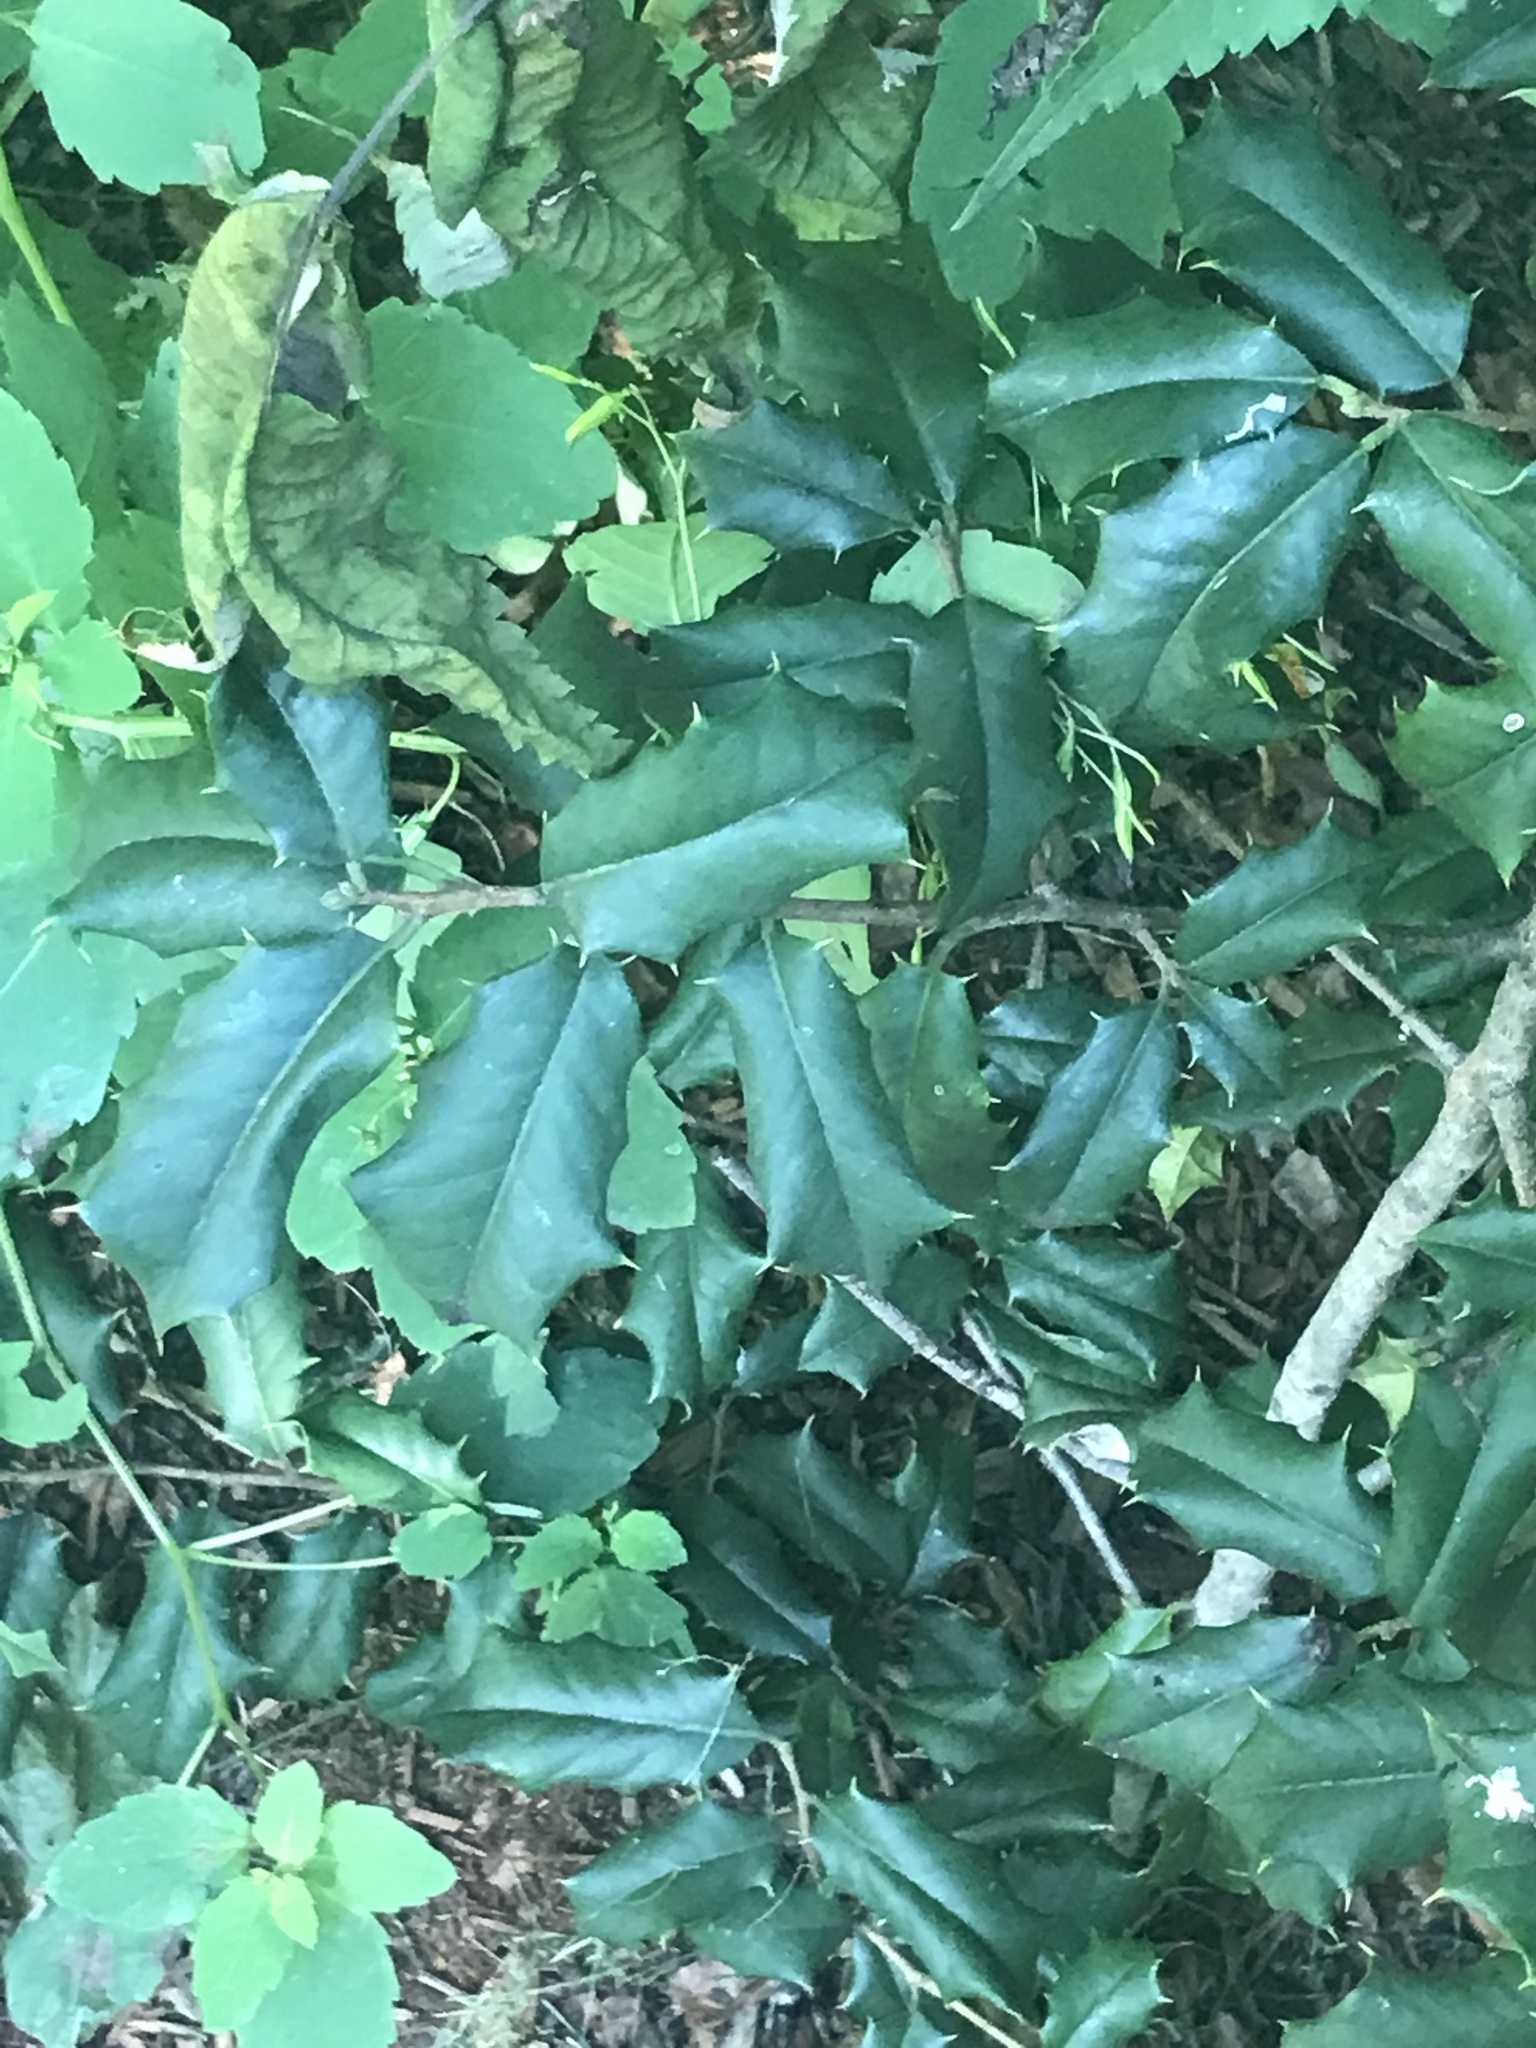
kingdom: Plantae
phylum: Tracheophyta
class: Magnoliopsida
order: Aquifoliales
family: Aquifoliaceae
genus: Ilex
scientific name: Ilex opaca
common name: American holly
